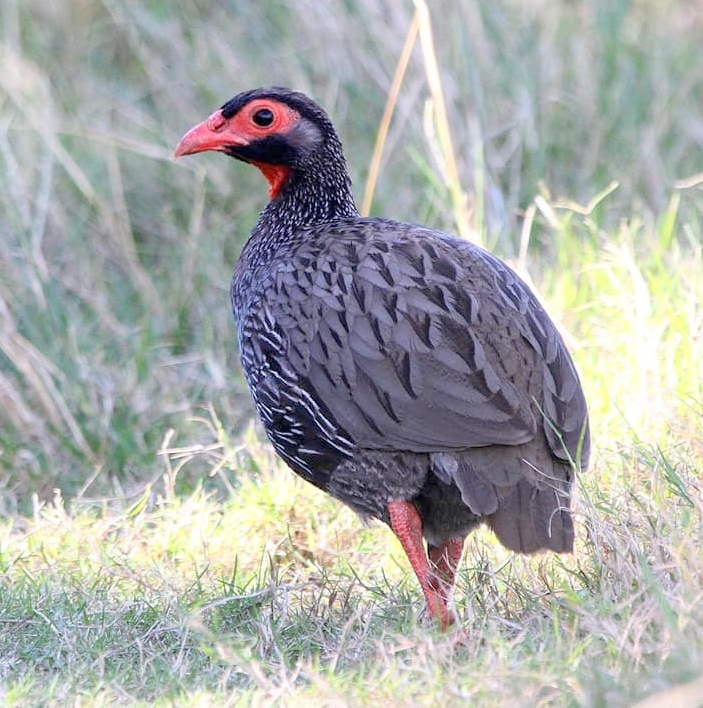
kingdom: Animalia
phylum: Chordata
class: Aves
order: Galliformes
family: Phasianidae
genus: Pternistis
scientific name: Pternistis afer
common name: Red-necked spurfowl
